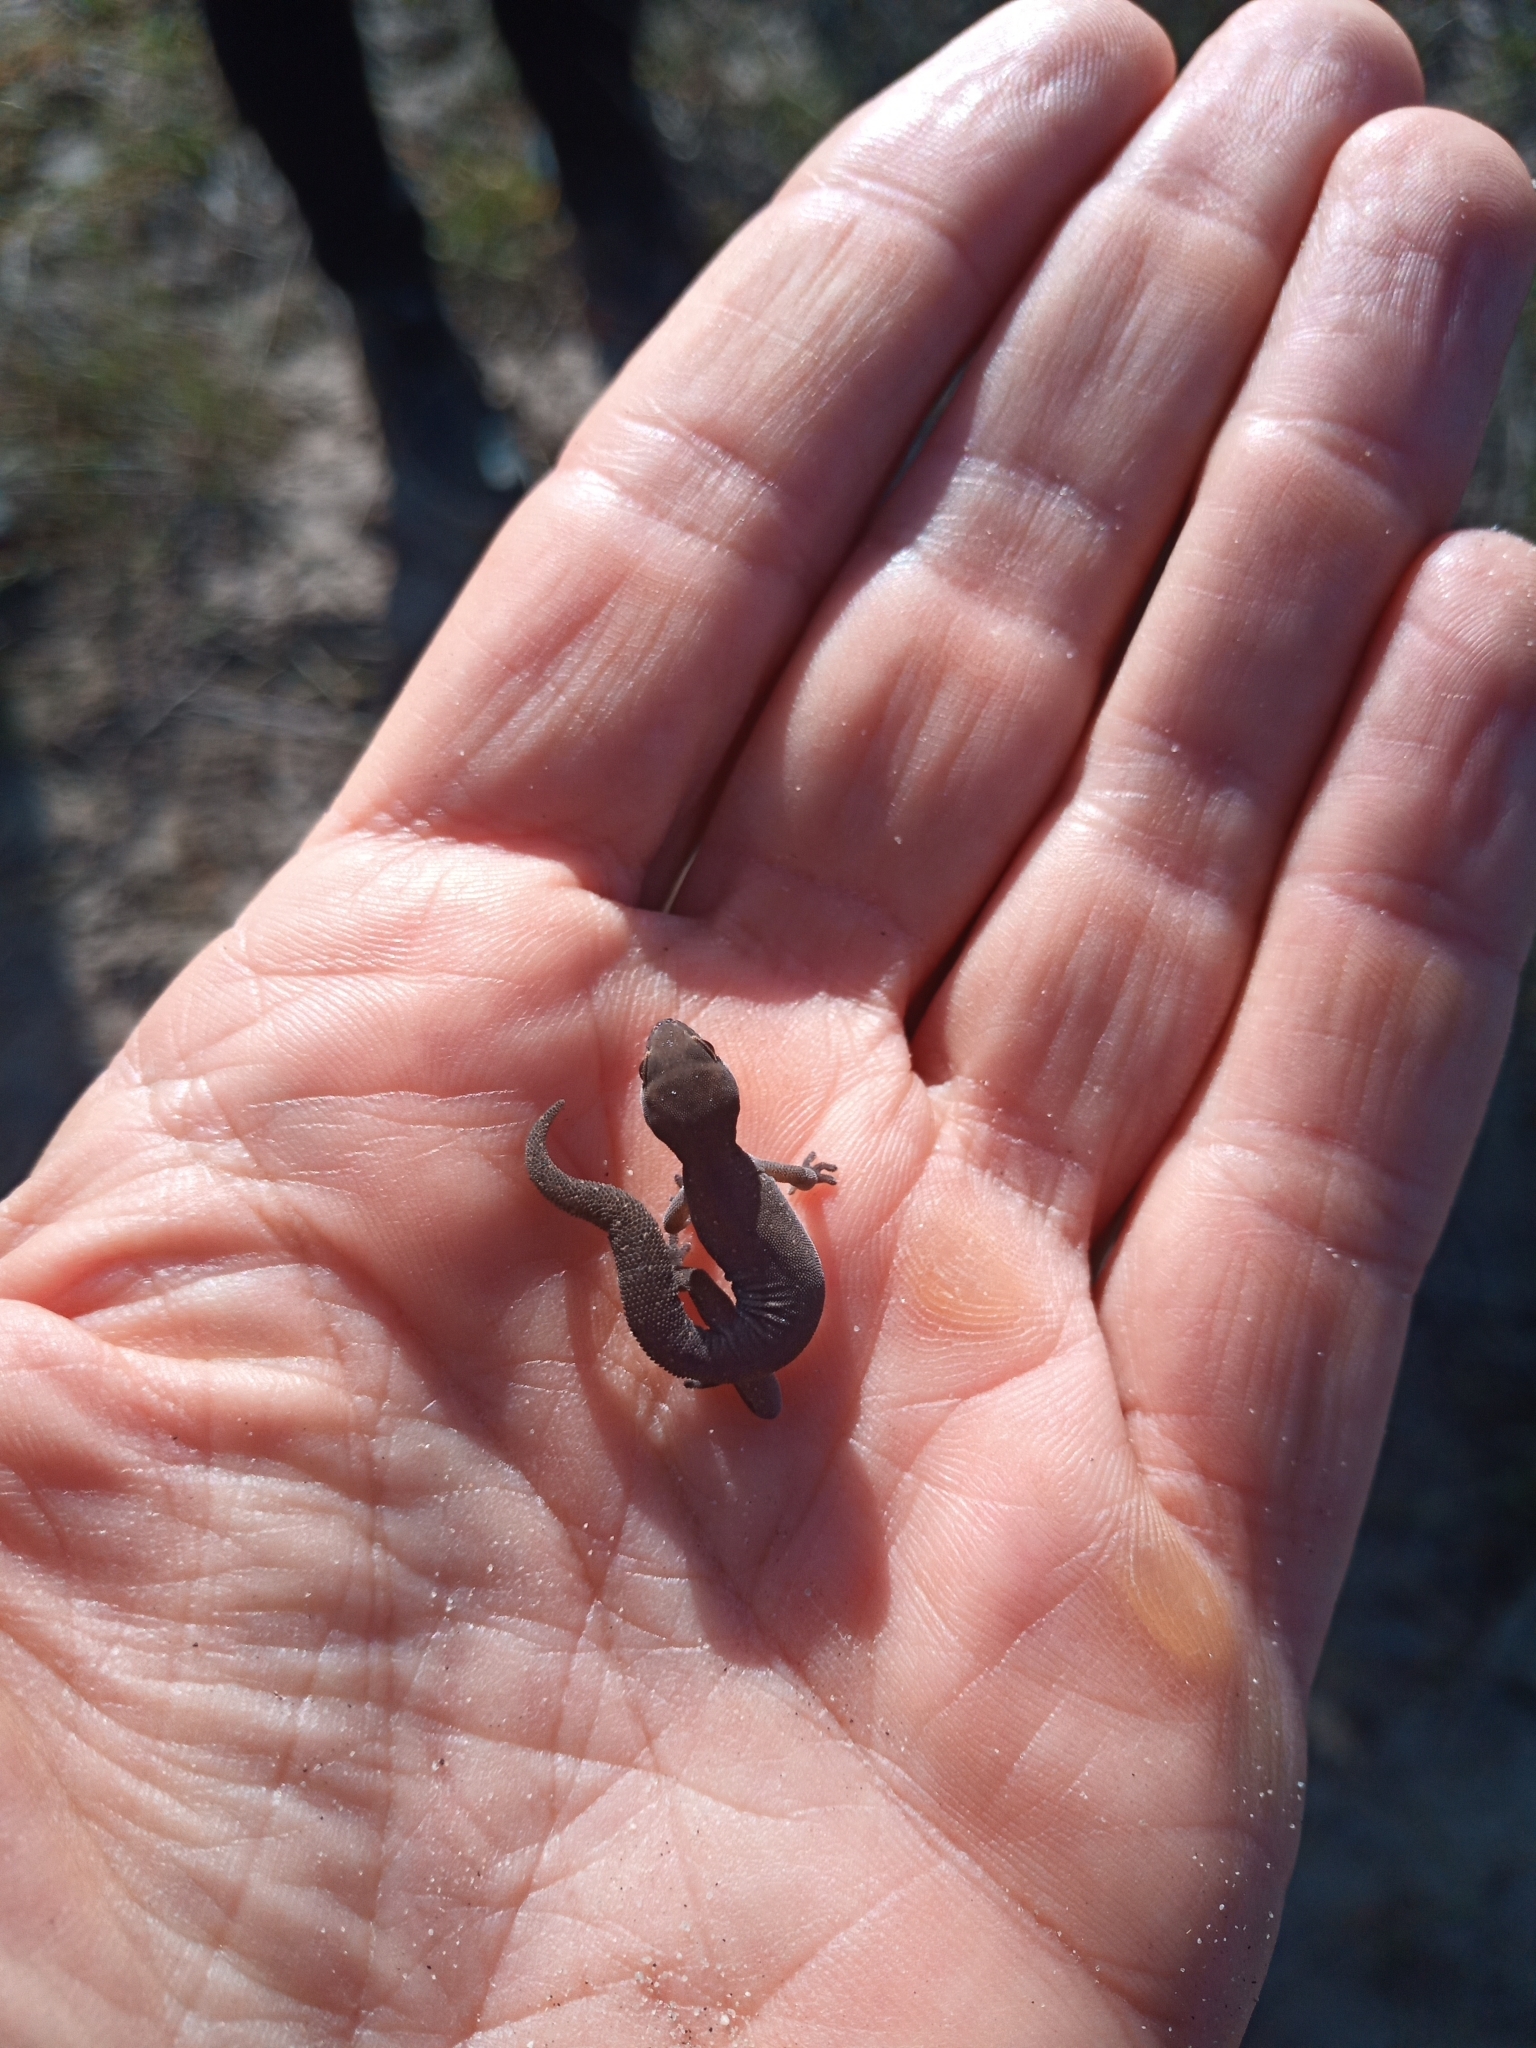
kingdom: Animalia
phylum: Chordata
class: Squamata
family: Gekkonidae
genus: Pachydactylus
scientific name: Pachydactylus geitje
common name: Ocellated thick-toed gecko
